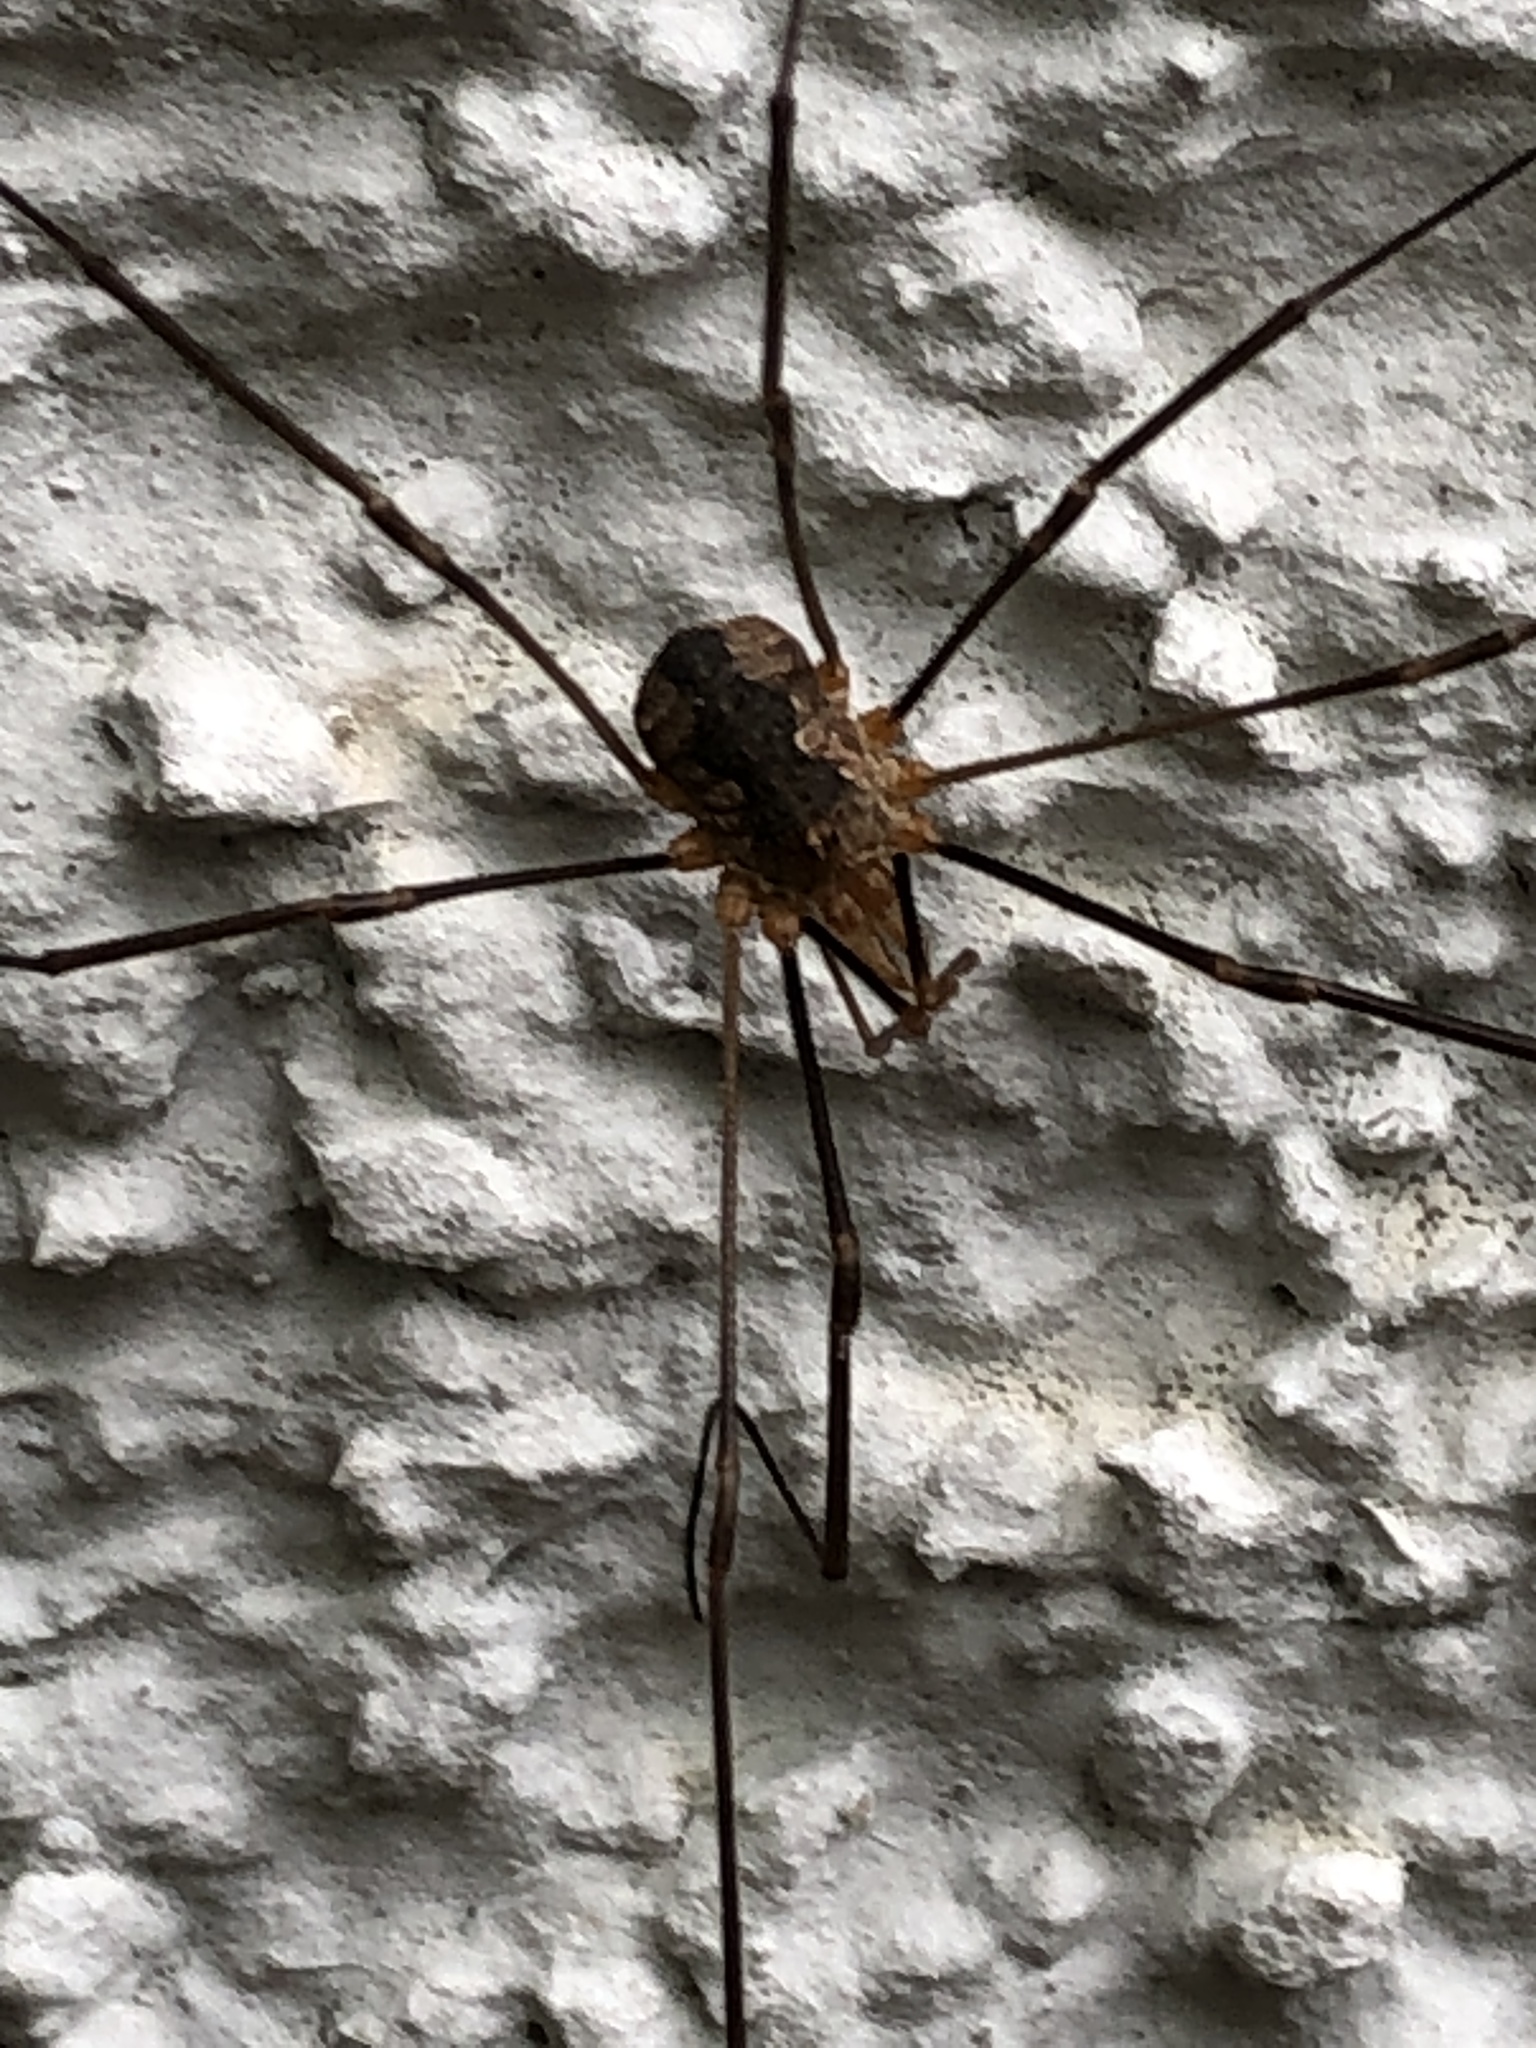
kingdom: Animalia
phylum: Arthropoda
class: Arachnida
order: Opiliones
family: Phalangiidae
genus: Phalangium
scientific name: Phalangium opilio
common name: Daddy longleg
